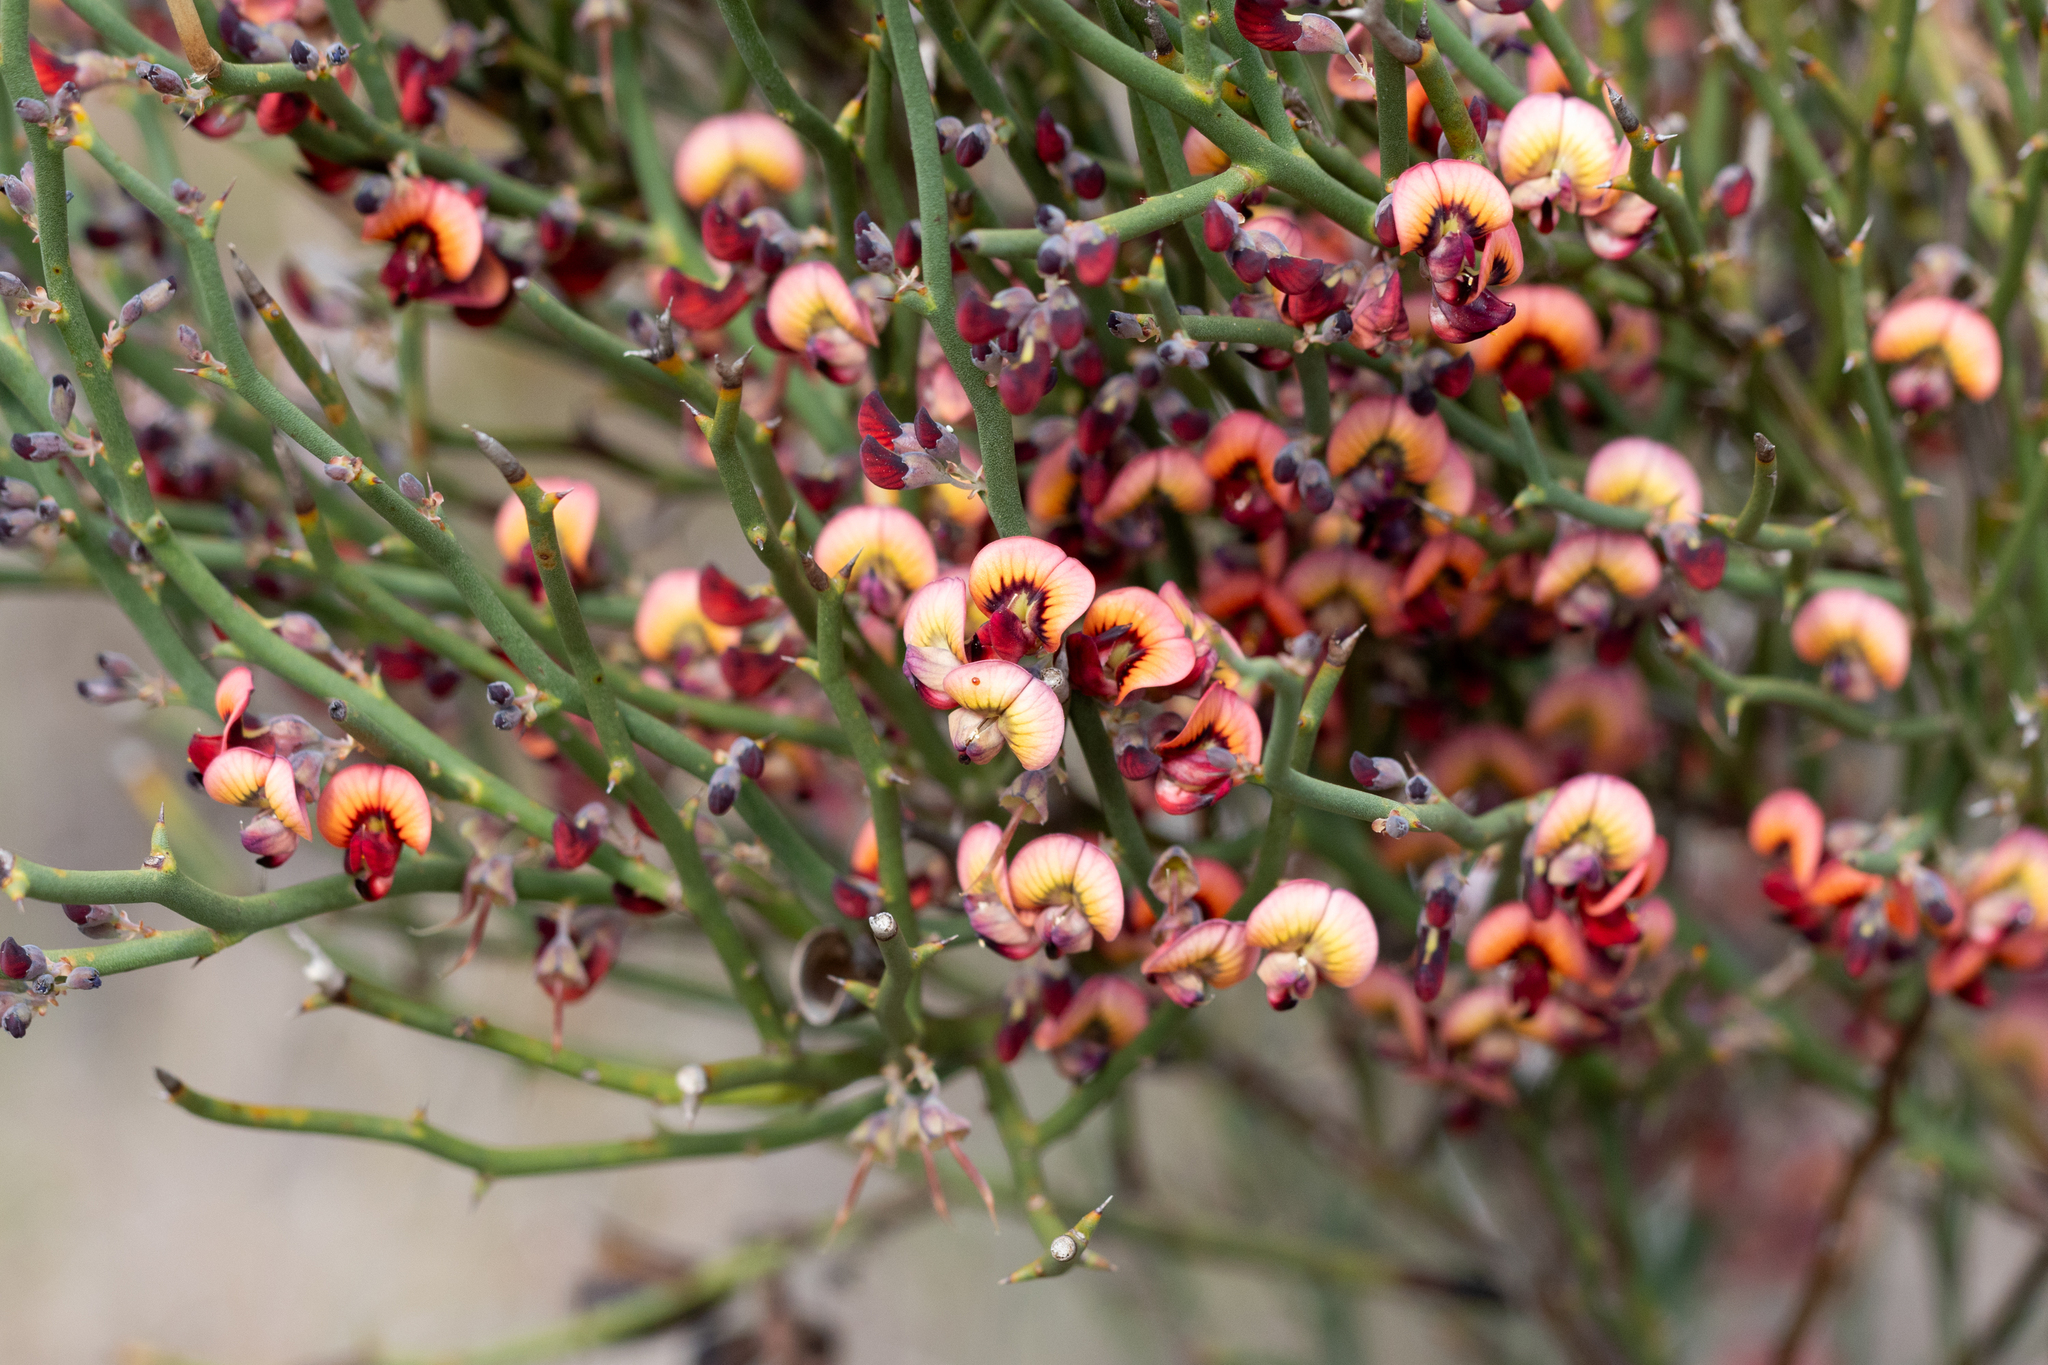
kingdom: Plantae
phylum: Tracheophyta
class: Magnoliopsida
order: Fabales
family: Fabaceae
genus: Daviesia
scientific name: Daviesia brevifolia
